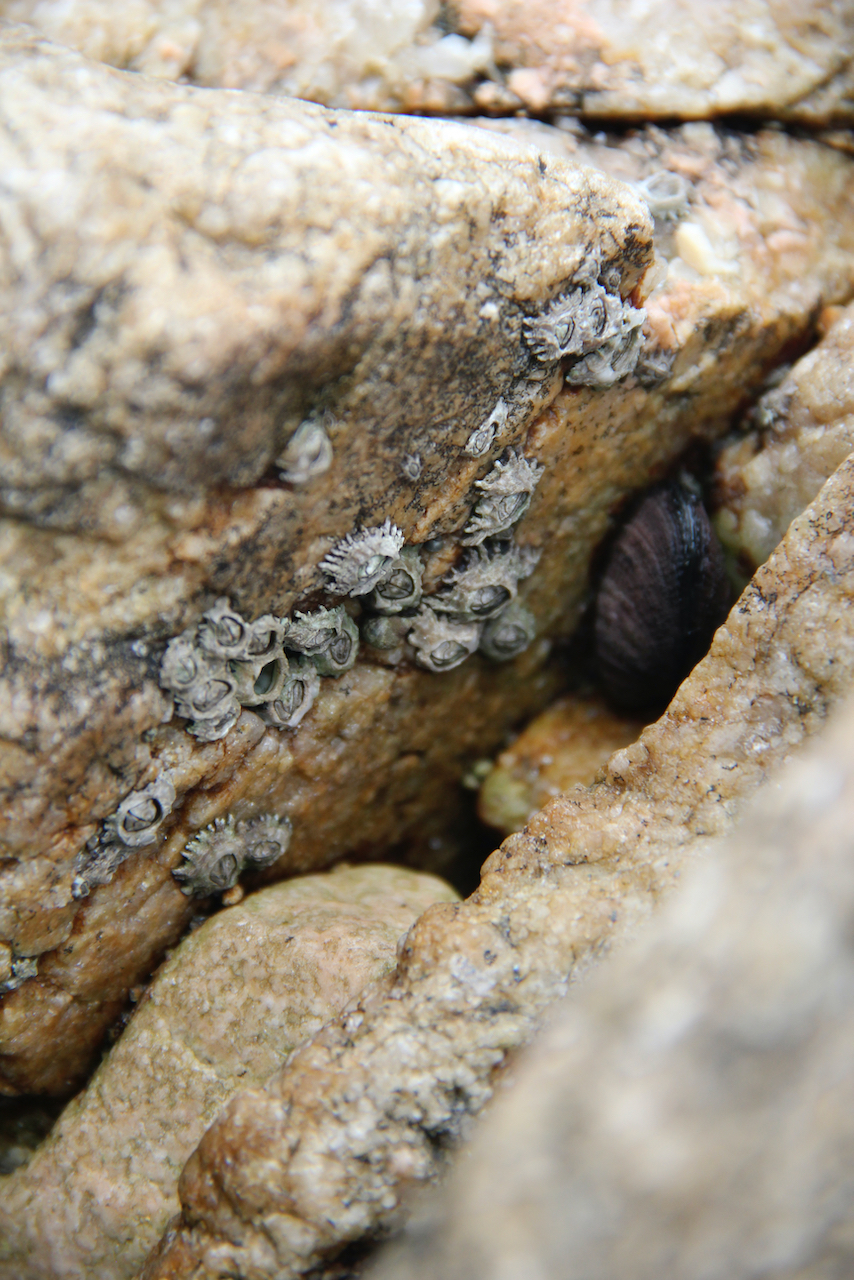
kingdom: Animalia
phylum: Arthropoda
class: Maxillopoda
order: Sessilia
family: Chthamalidae
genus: Jehlius
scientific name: Jehlius cirratus
